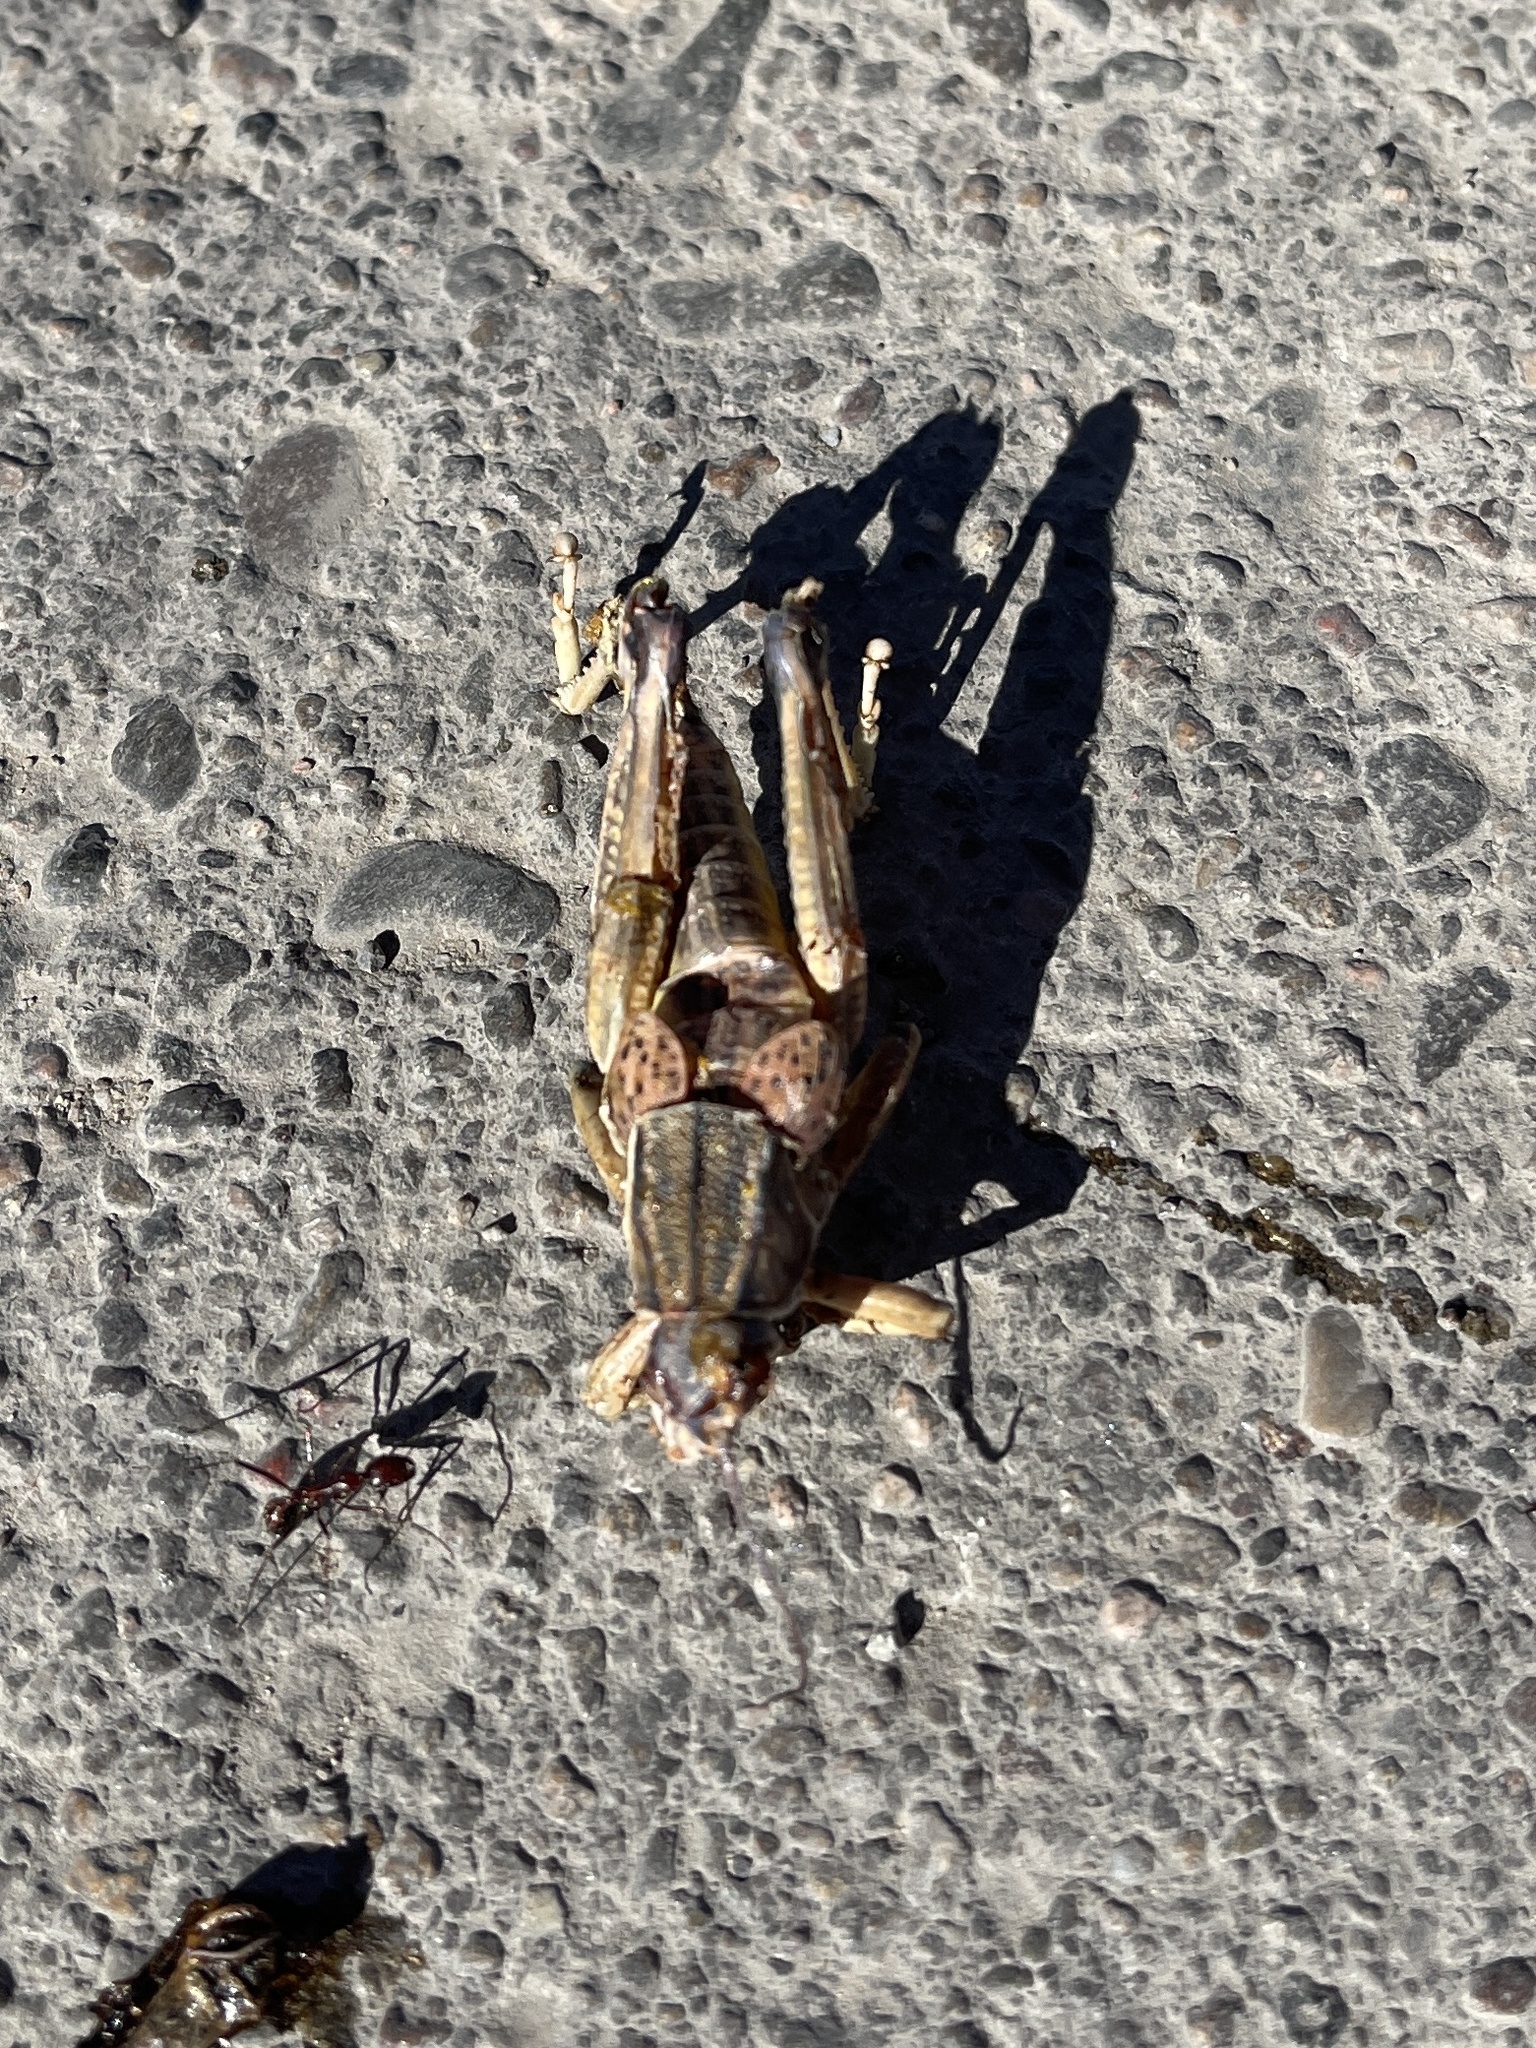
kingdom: Animalia
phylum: Arthropoda
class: Insecta
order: Orthoptera
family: Romaleidae
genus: Brachystola
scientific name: Brachystola magna
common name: Plains lubber grasshopper
